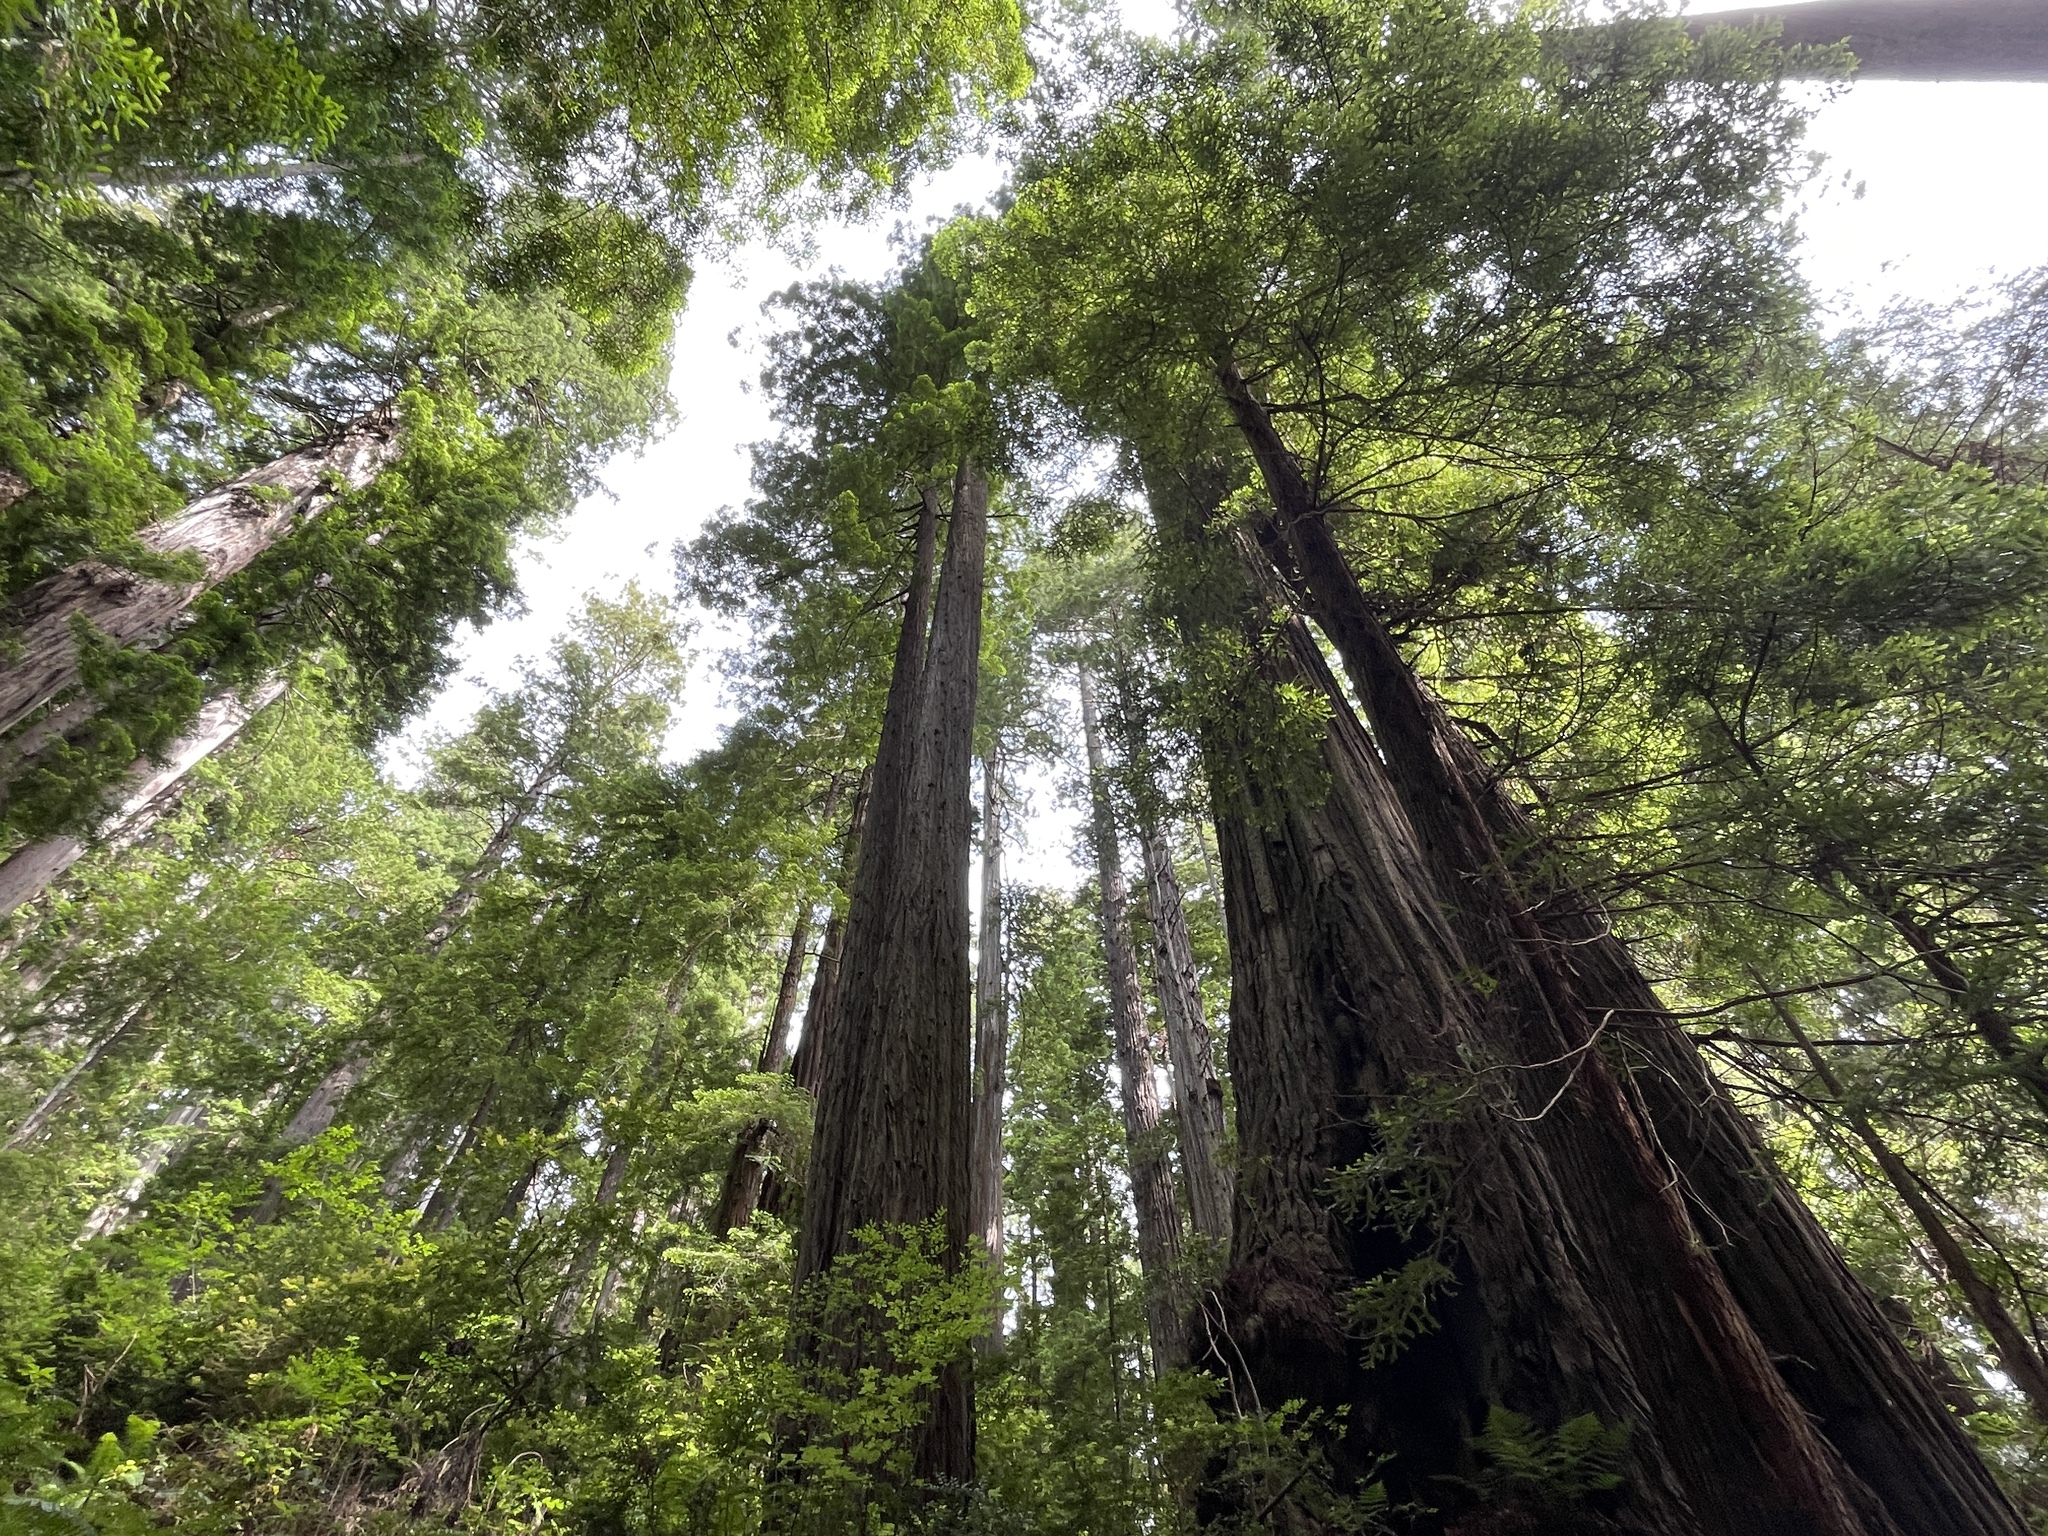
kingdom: Plantae
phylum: Tracheophyta
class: Pinopsida
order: Pinales
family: Cupressaceae
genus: Sequoia
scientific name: Sequoia sempervirens
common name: Coast redwood
